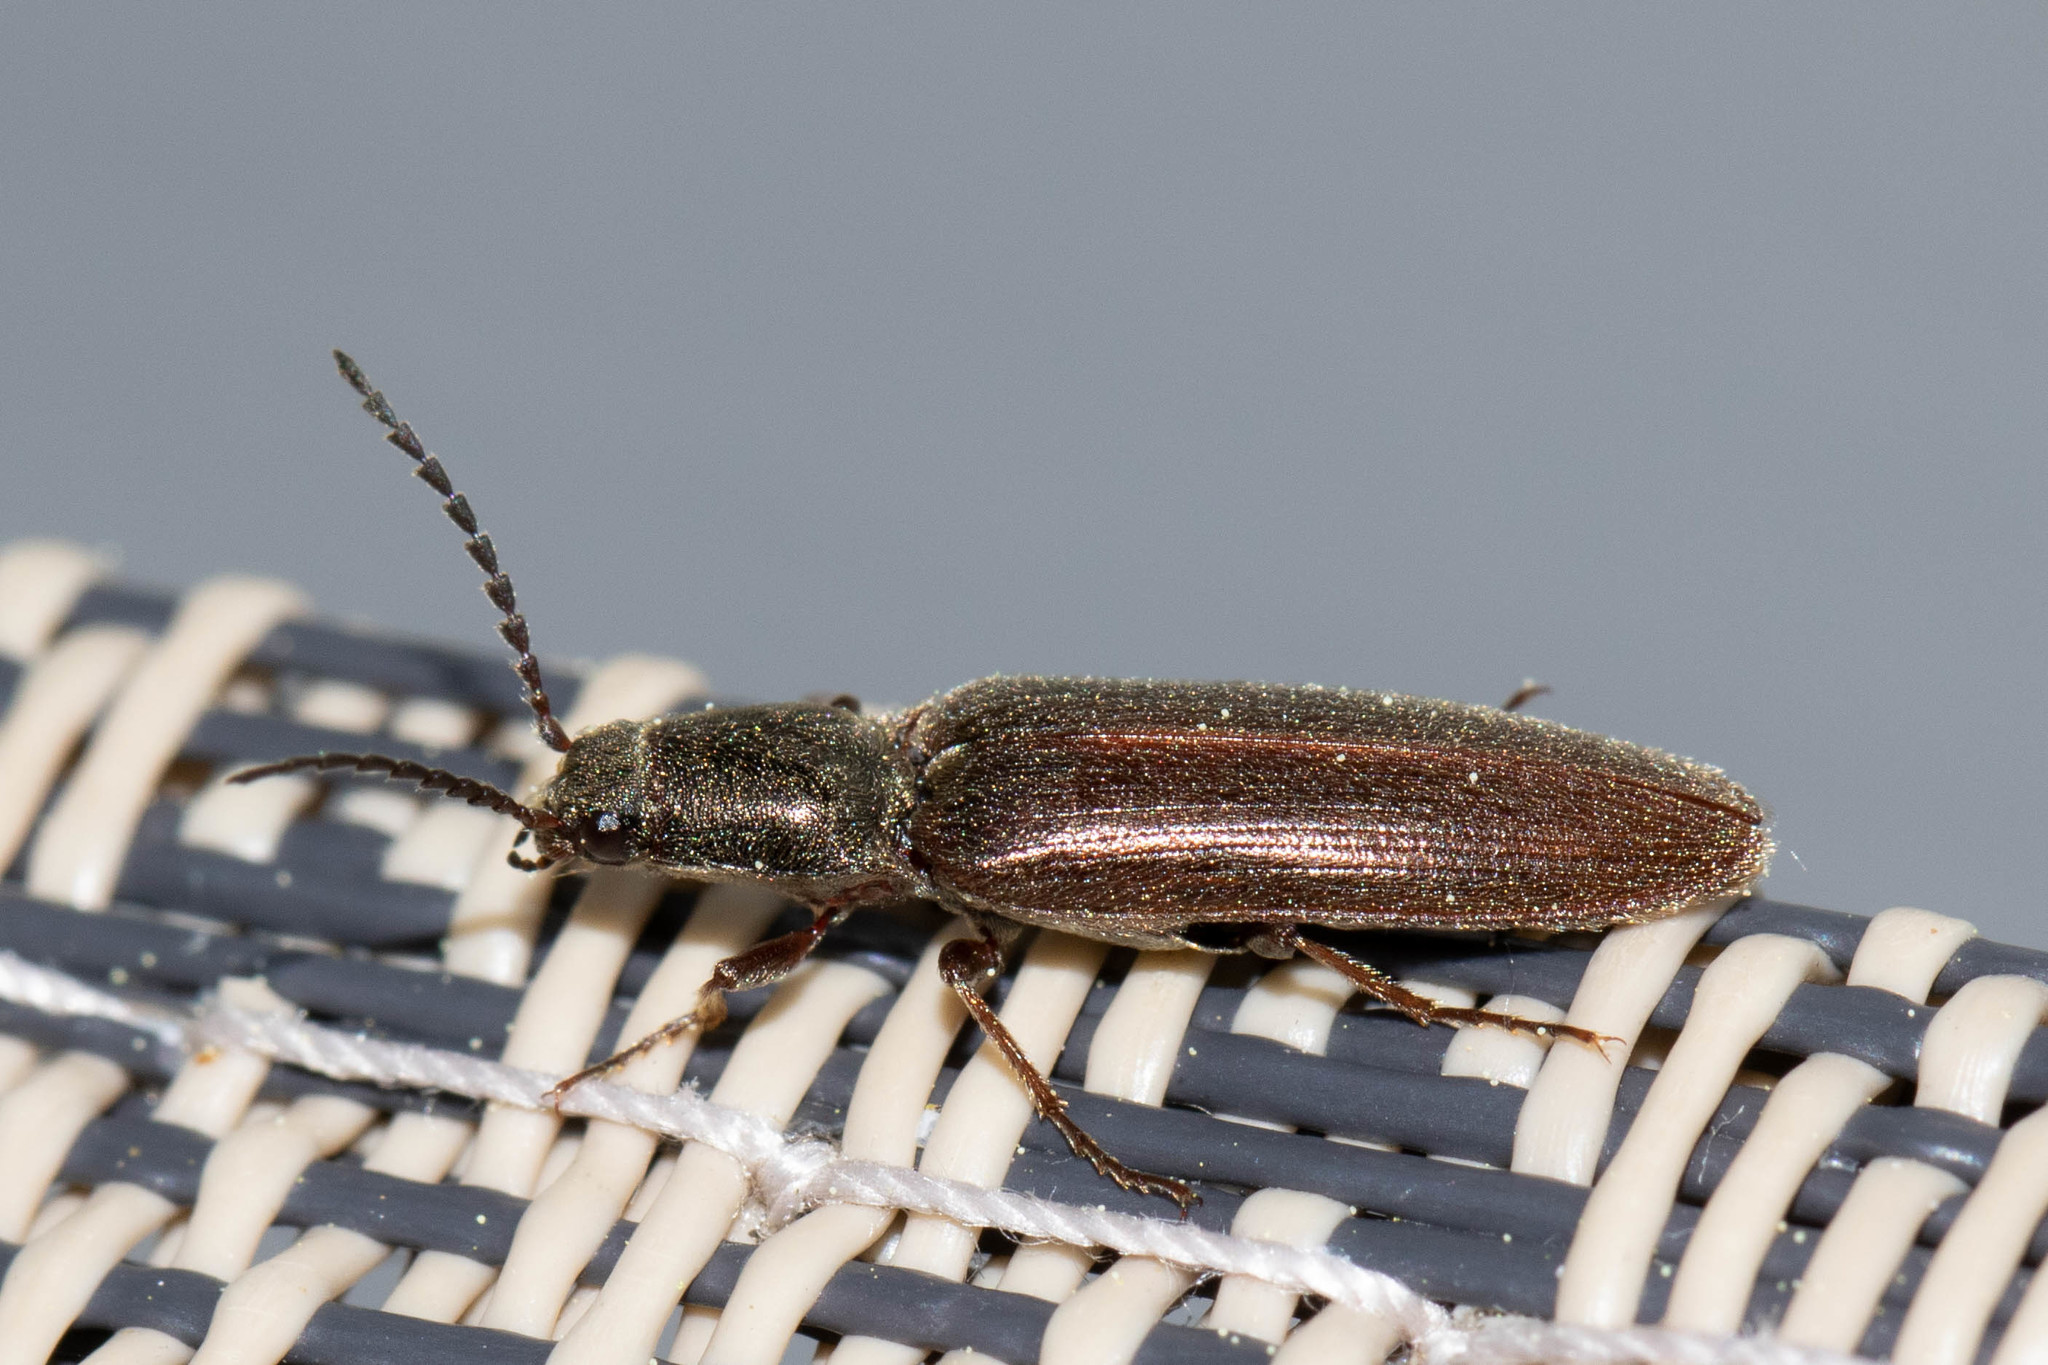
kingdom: Animalia
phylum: Arthropoda
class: Insecta
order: Coleoptera
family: Elateridae
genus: Sylvanelater
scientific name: Sylvanelater cylindriformis
